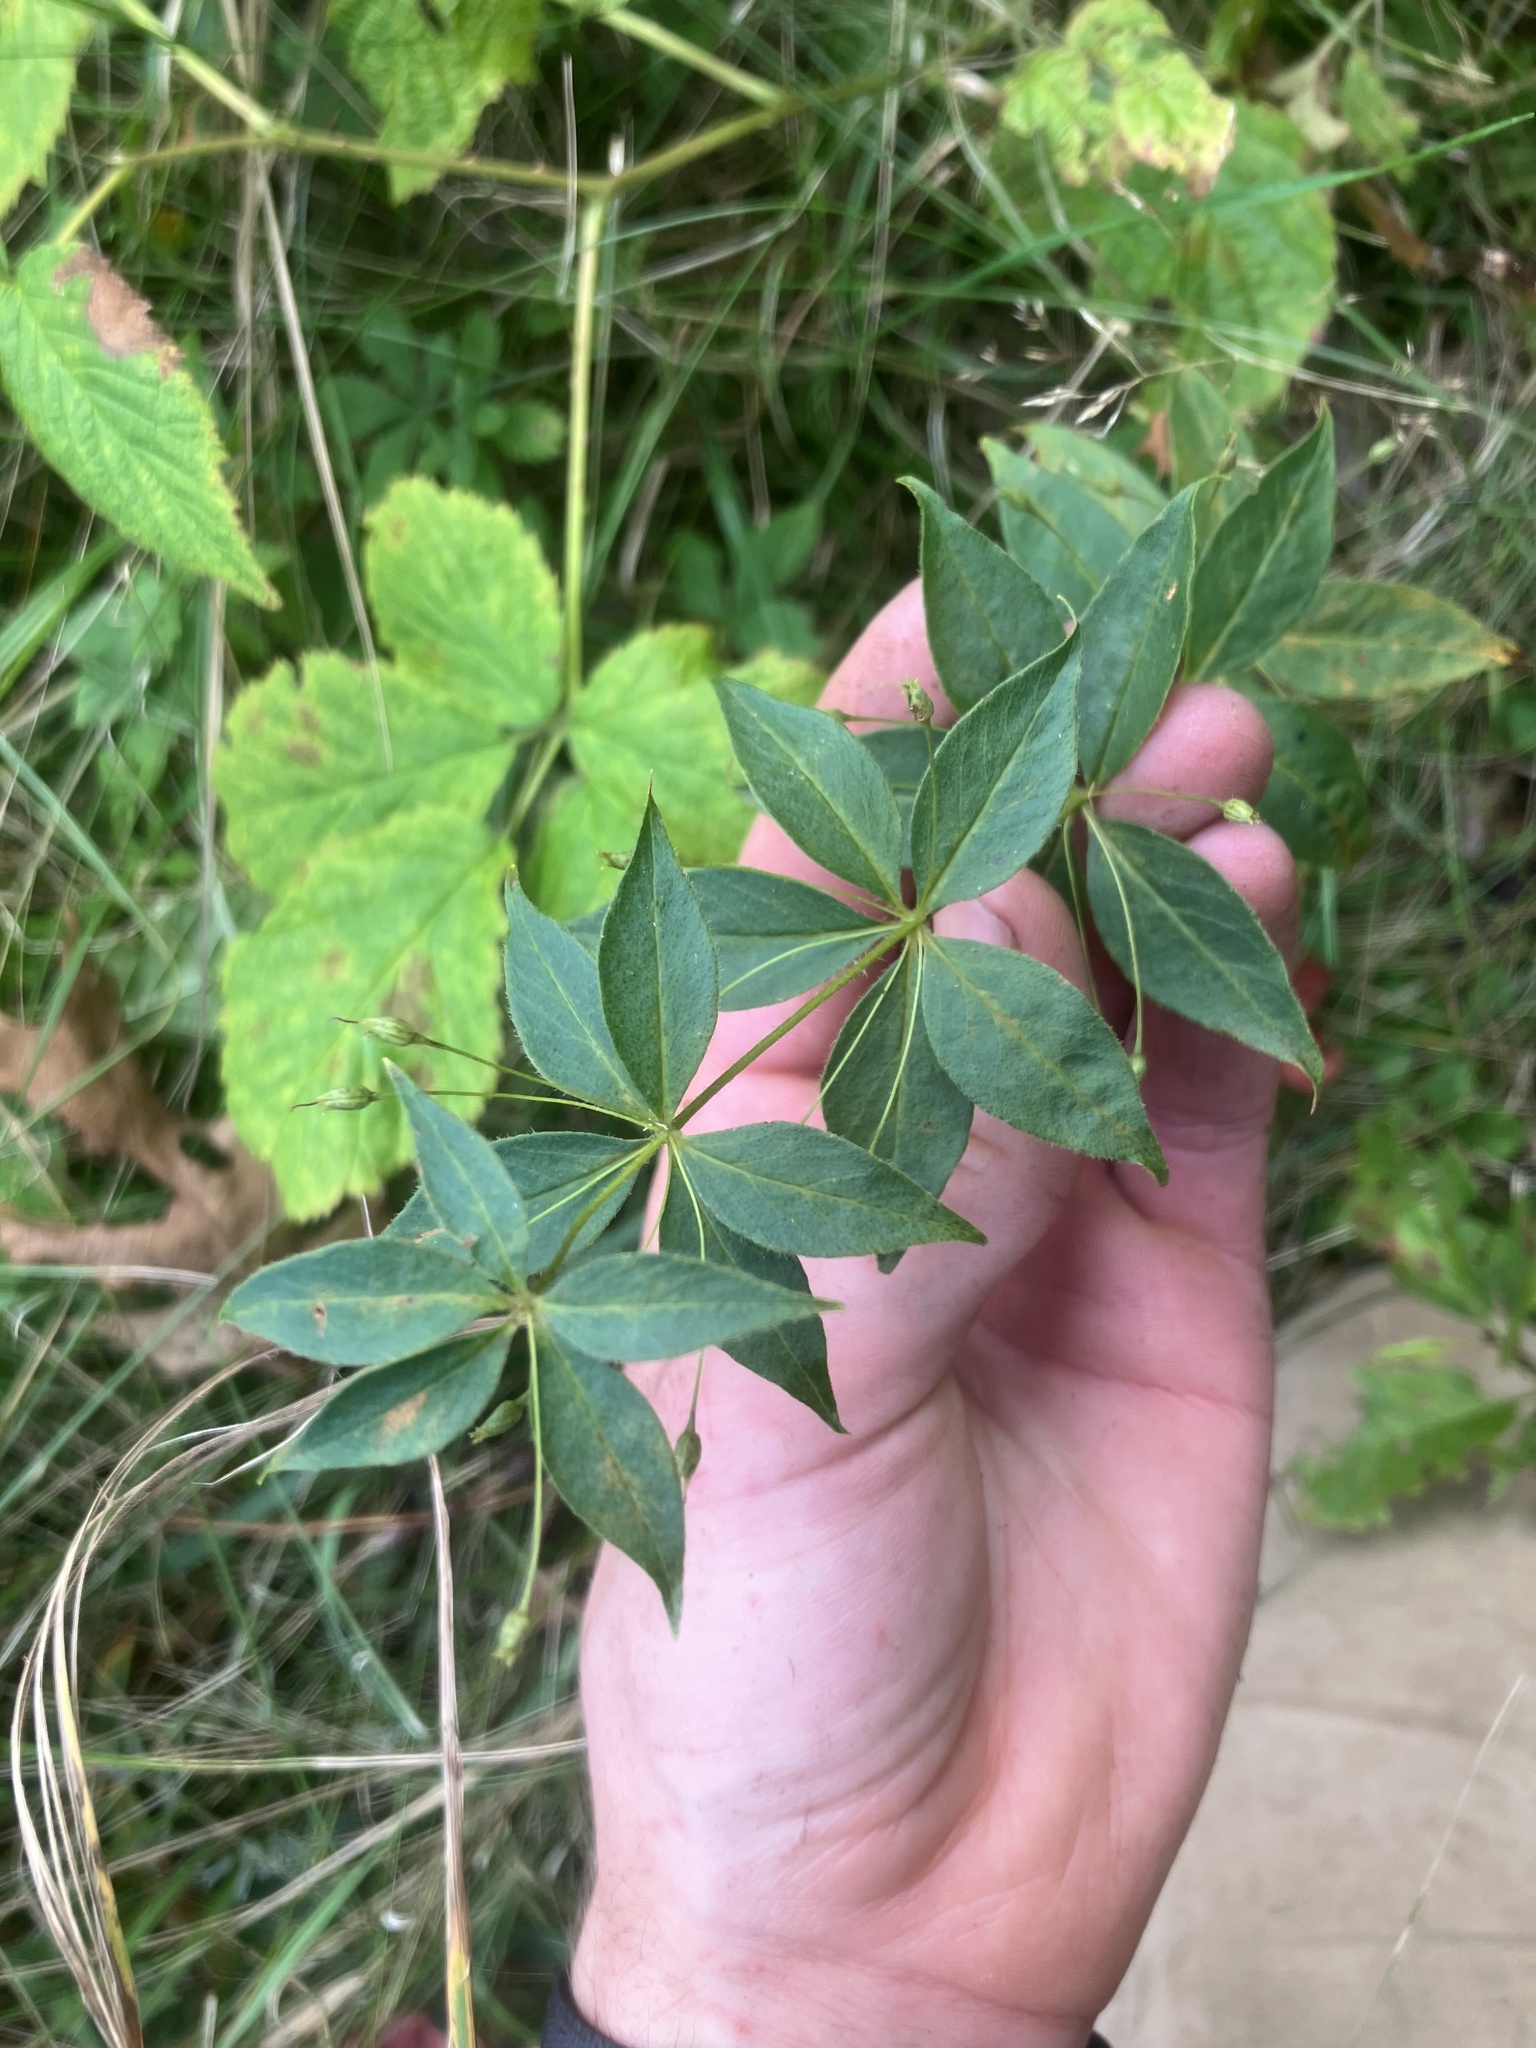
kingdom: Plantae
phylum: Tracheophyta
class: Magnoliopsida
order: Ericales
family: Primulaceae
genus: Lysimachia
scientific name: Lysimachia quadrifolia
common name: Whorled loosestrife
